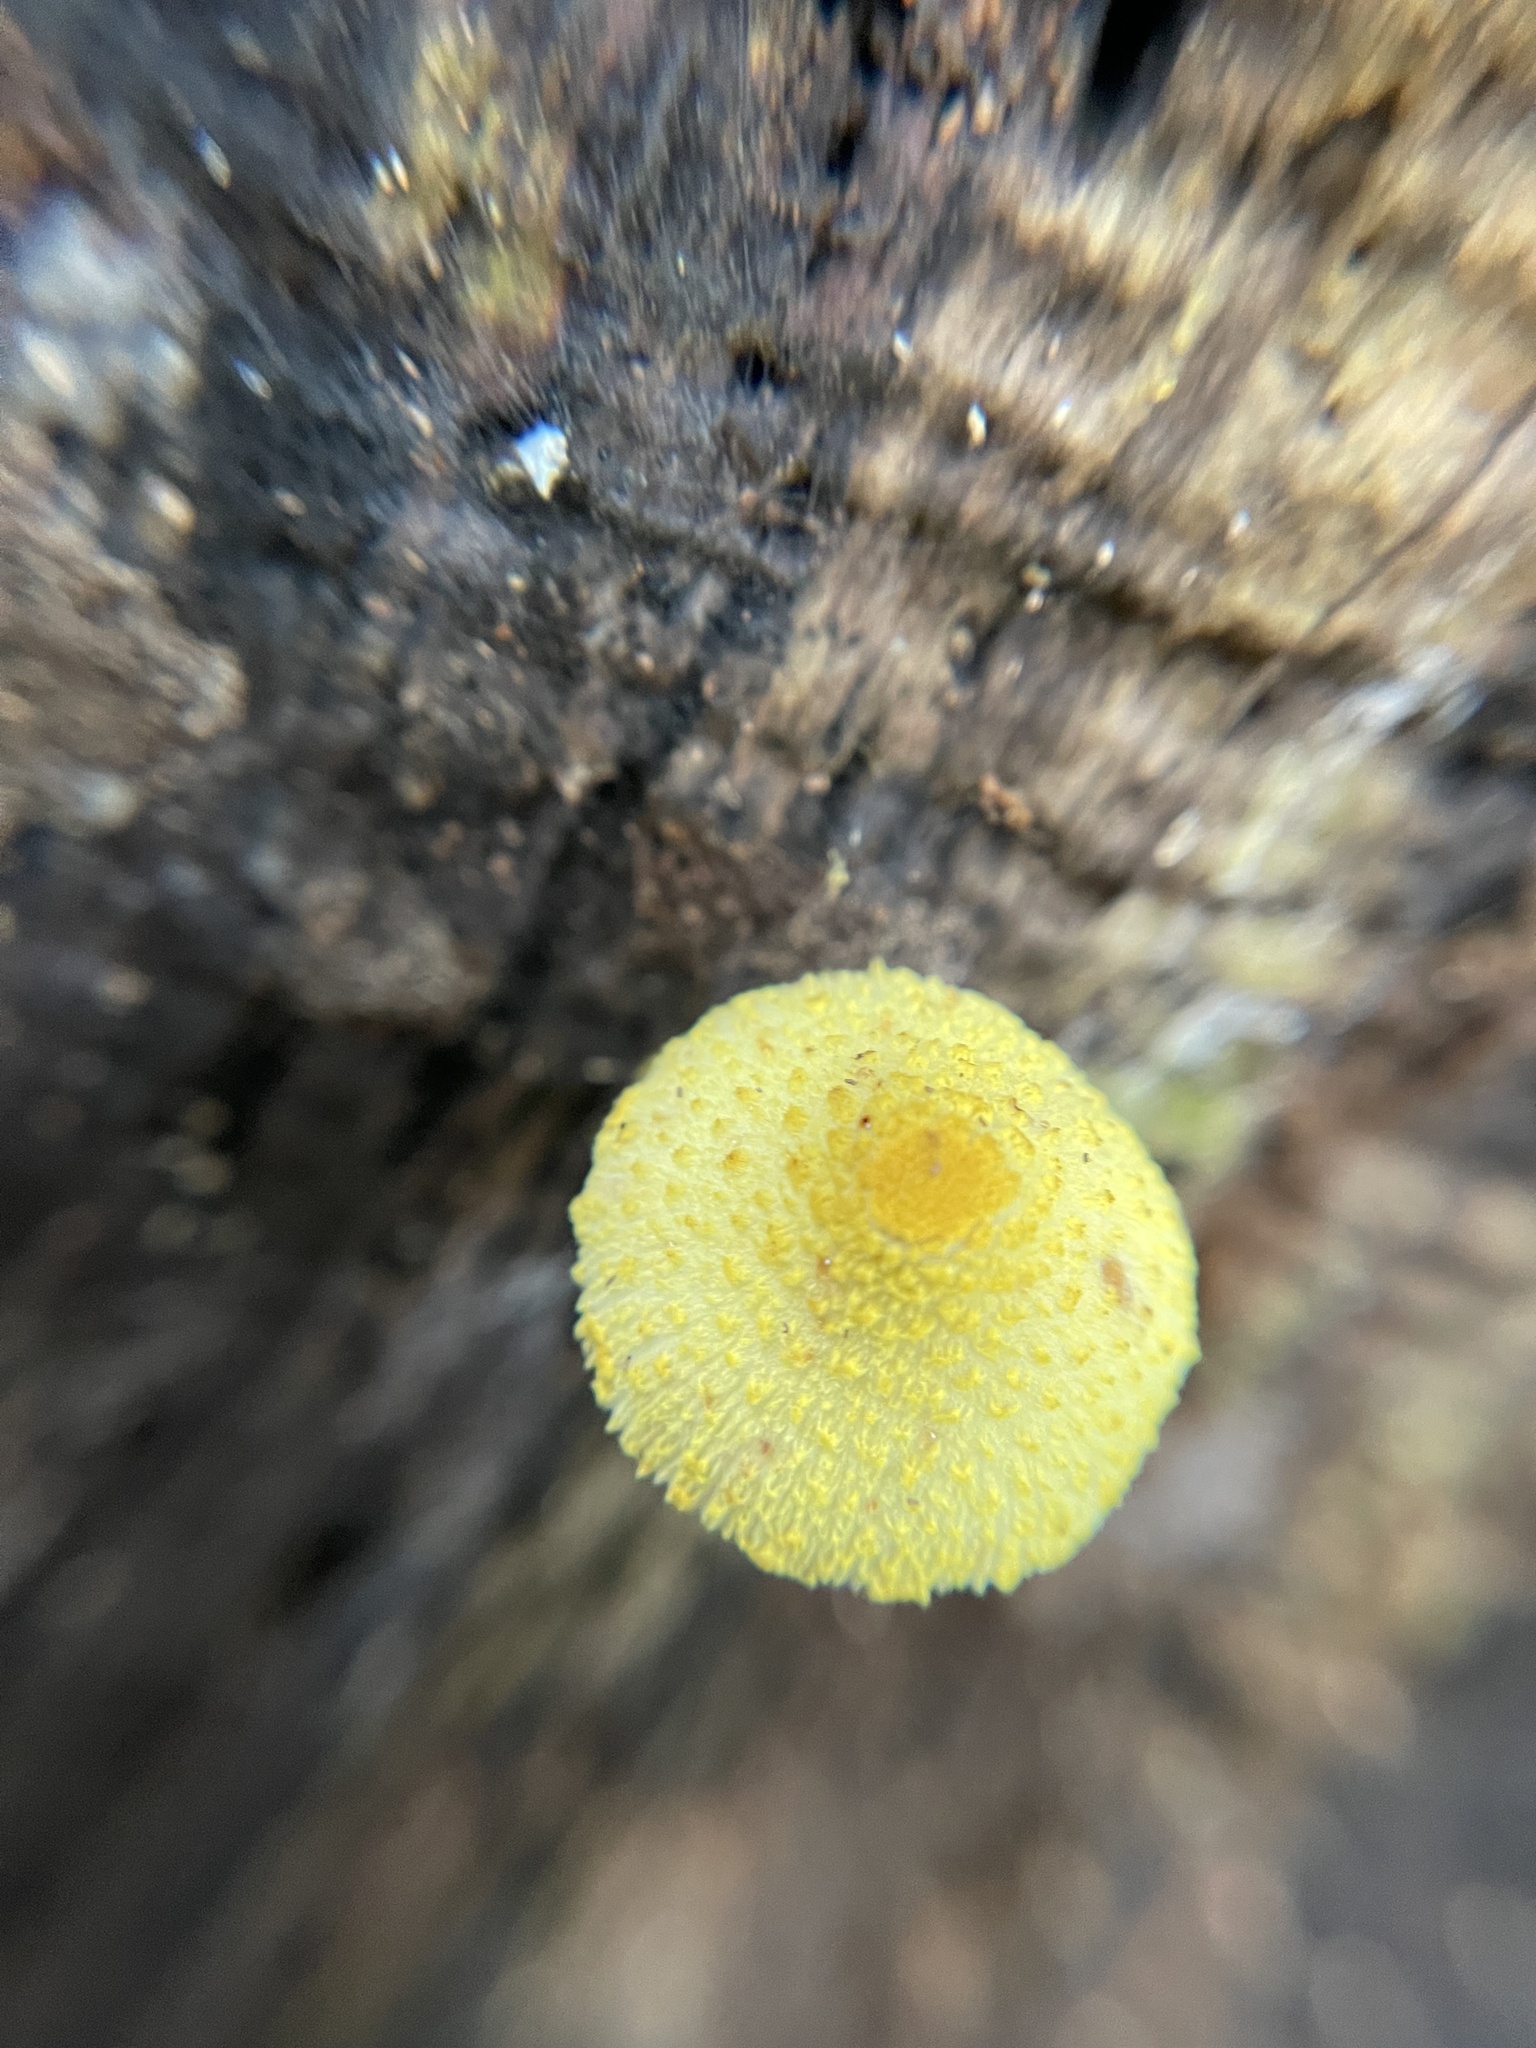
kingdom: Fungi
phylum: Basidiomycota
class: Agaricomycetes
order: Agaricales
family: Agaricaceae
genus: Leucocoprinus
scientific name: Leucocoprinus birnbaumii
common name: Plantpot dapperling
